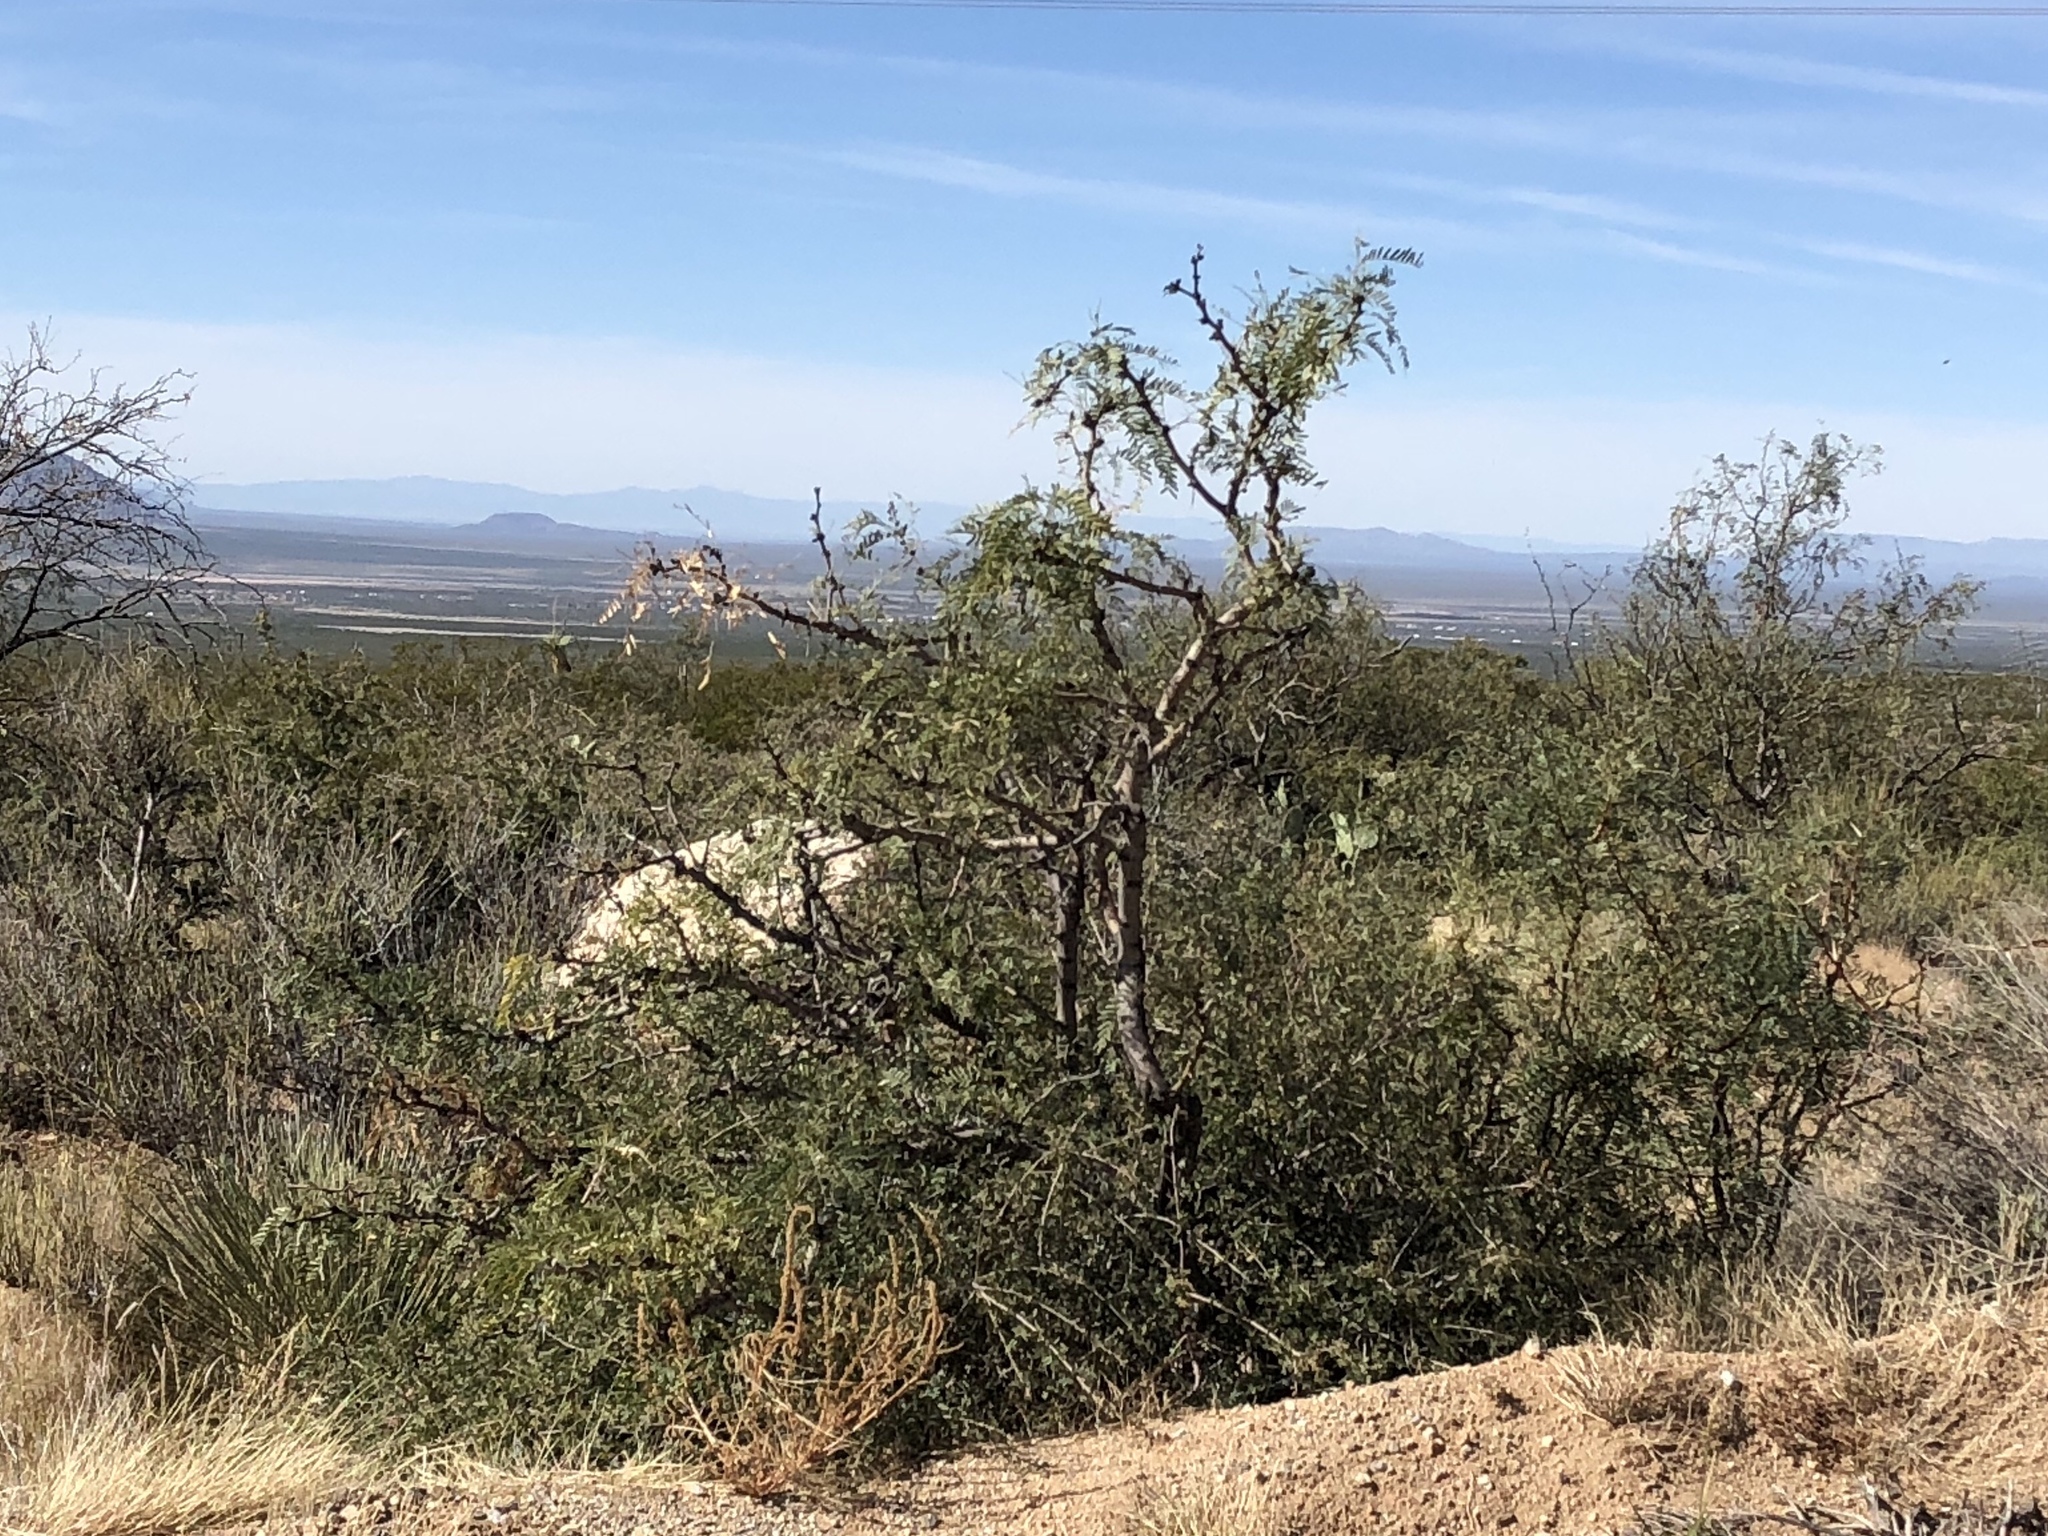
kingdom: Plantae
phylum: Tracheophyta
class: Magnoliopsida
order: Fabales
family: Fabaceae
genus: Prosopis
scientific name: Prosopis glandulosa
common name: Honey mesquite
